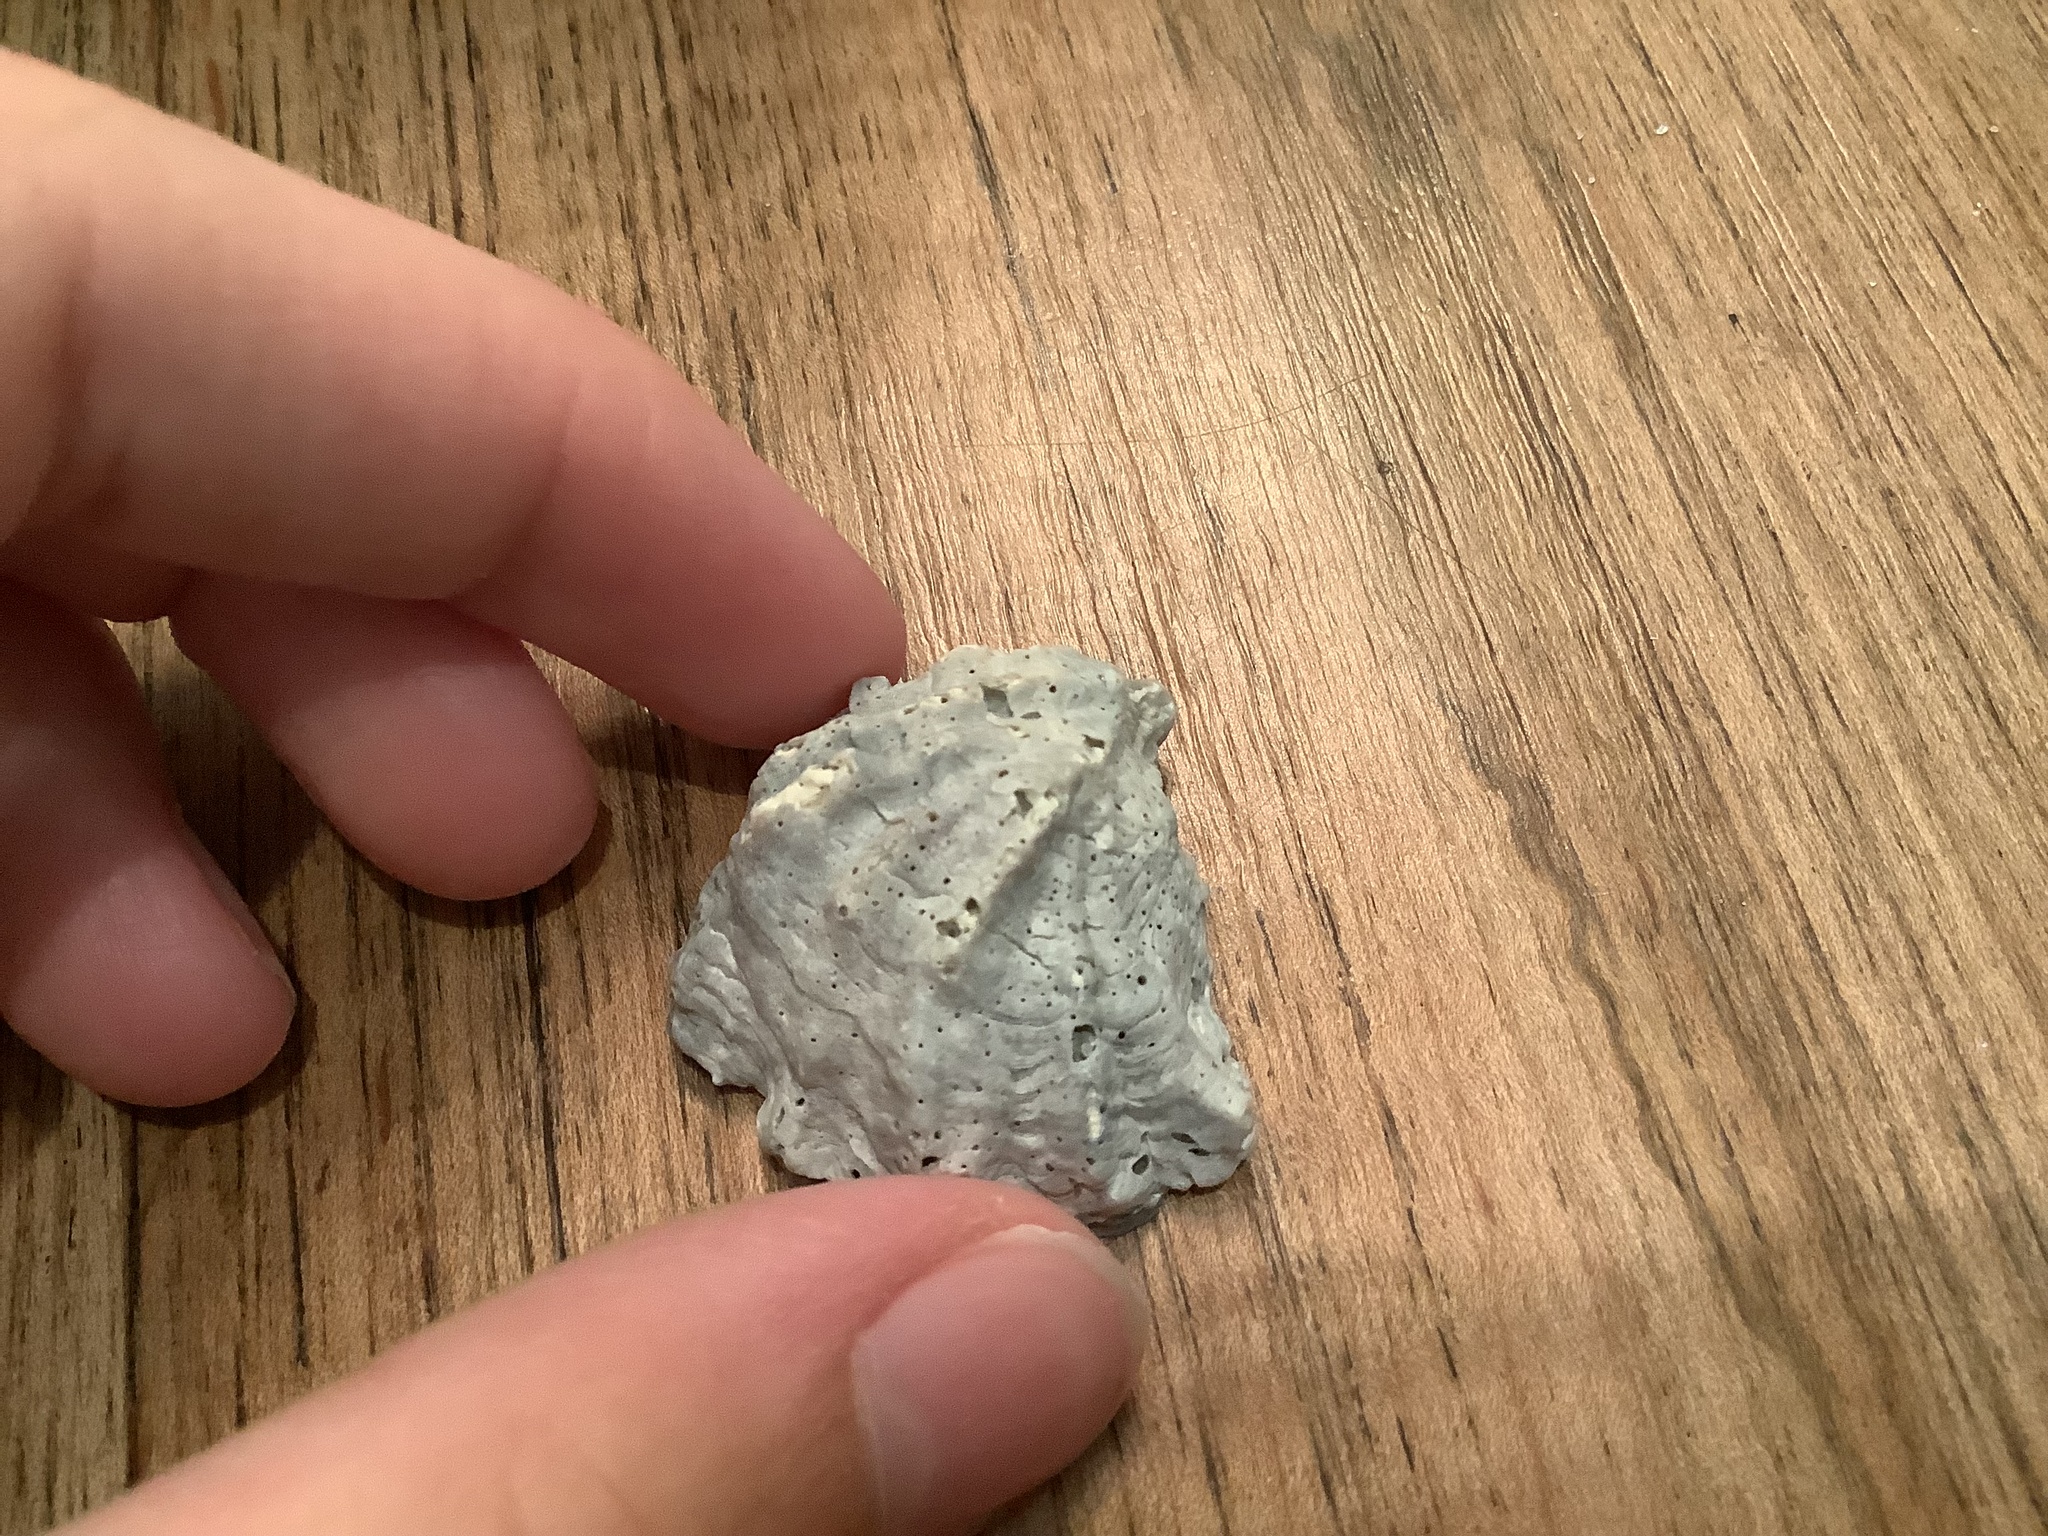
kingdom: Animalia
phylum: Mollusca
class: Bivalvia
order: Ostreida
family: Ostreidae
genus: Ostrea
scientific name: Ostrea equestris
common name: Crested oyster
